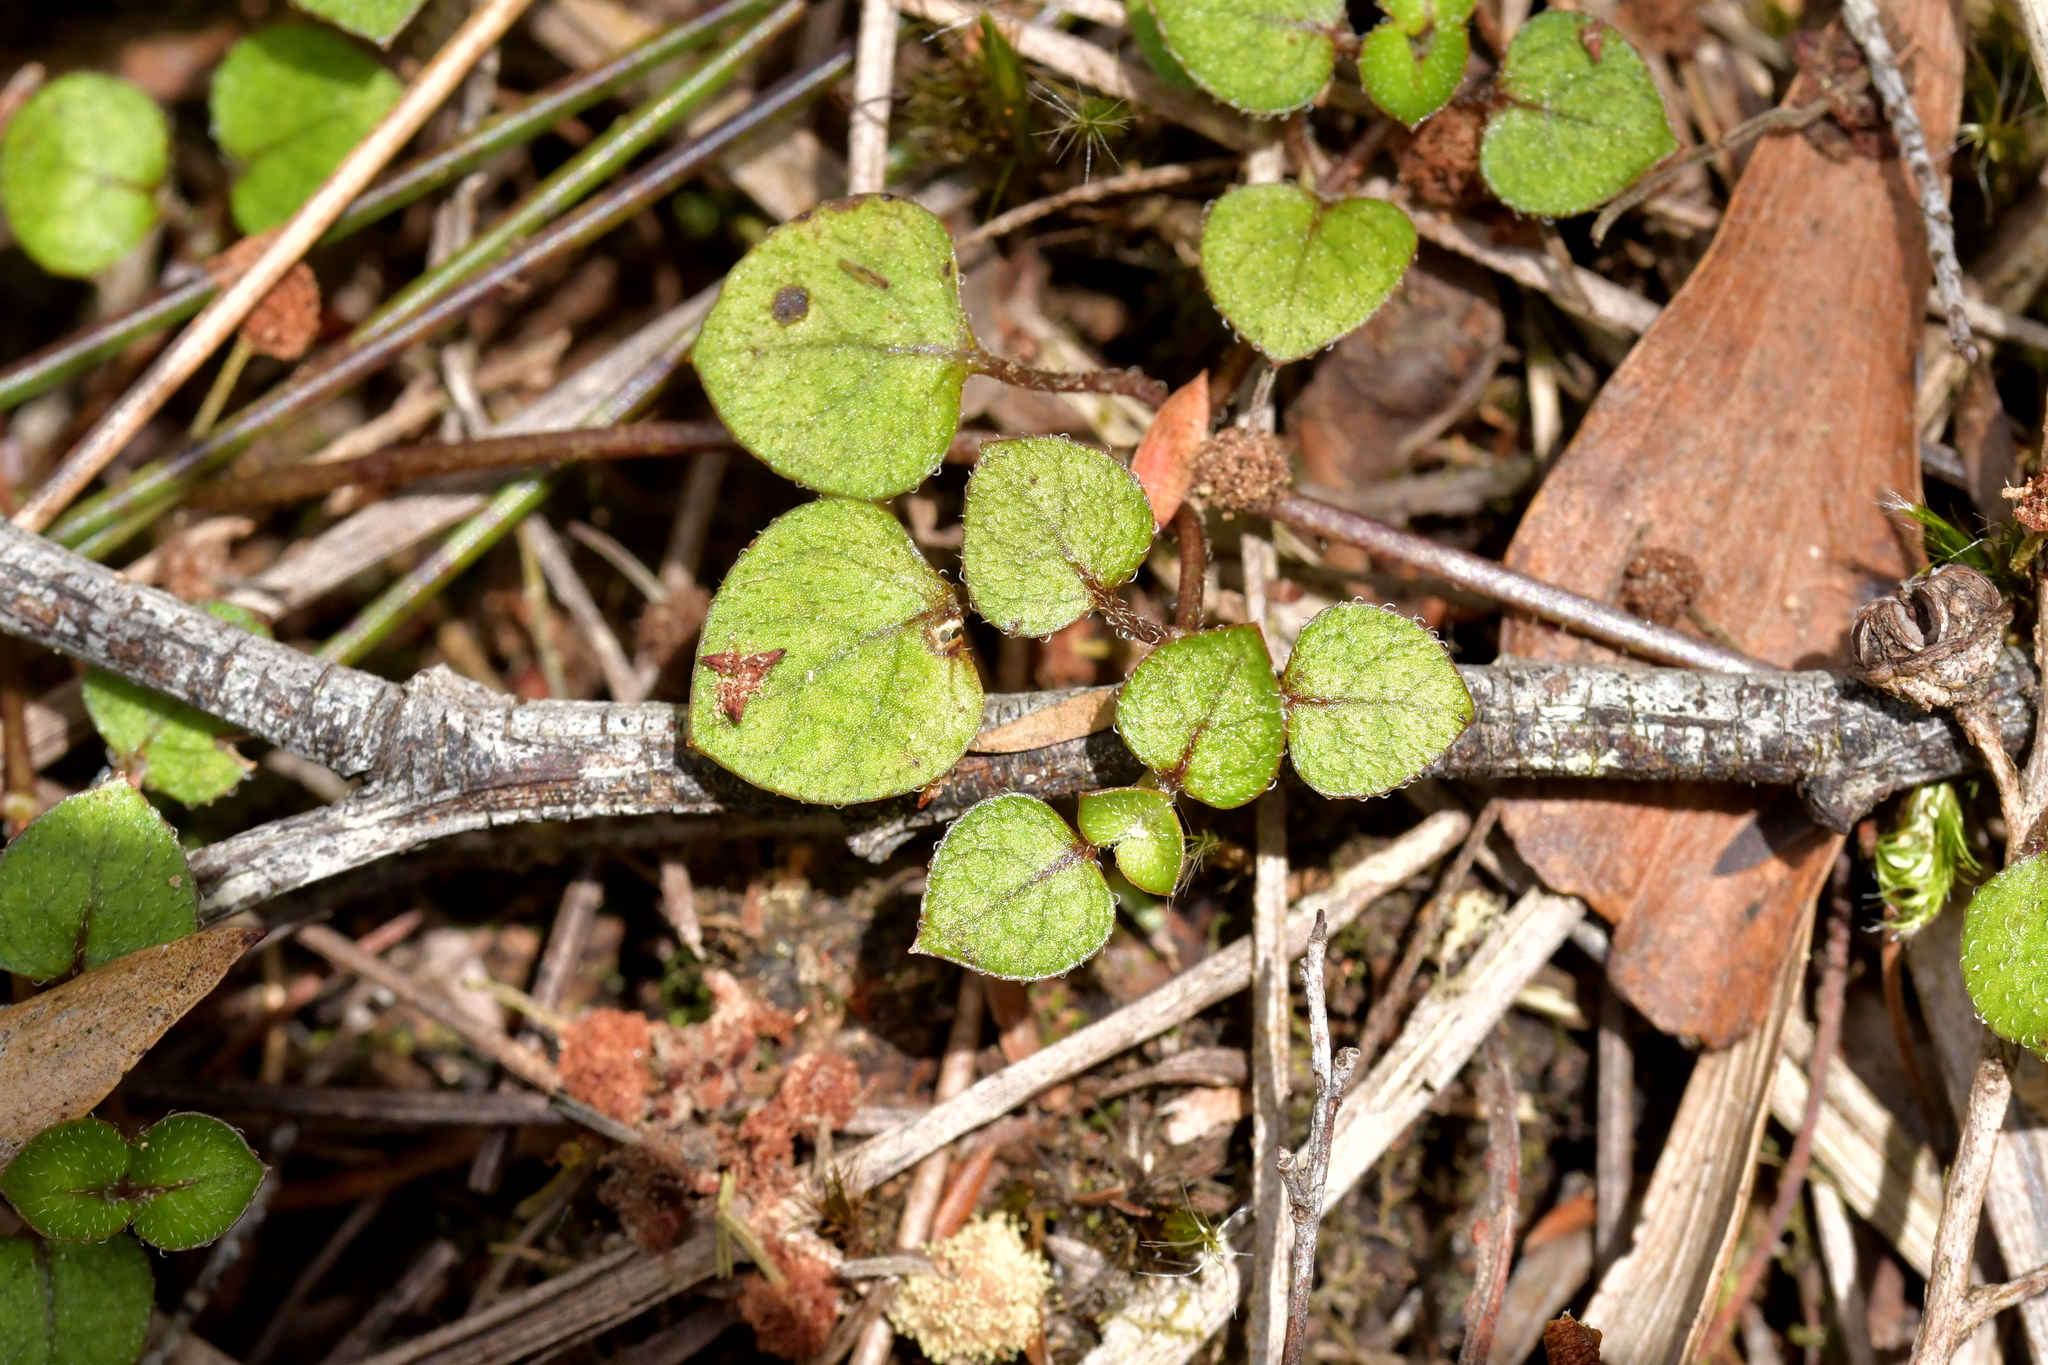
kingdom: Plantae
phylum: Tracheophyta
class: Magnoliopsida
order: Gentianales
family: Rubiaceae
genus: Nertera
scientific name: Nertera dichondrifolia
